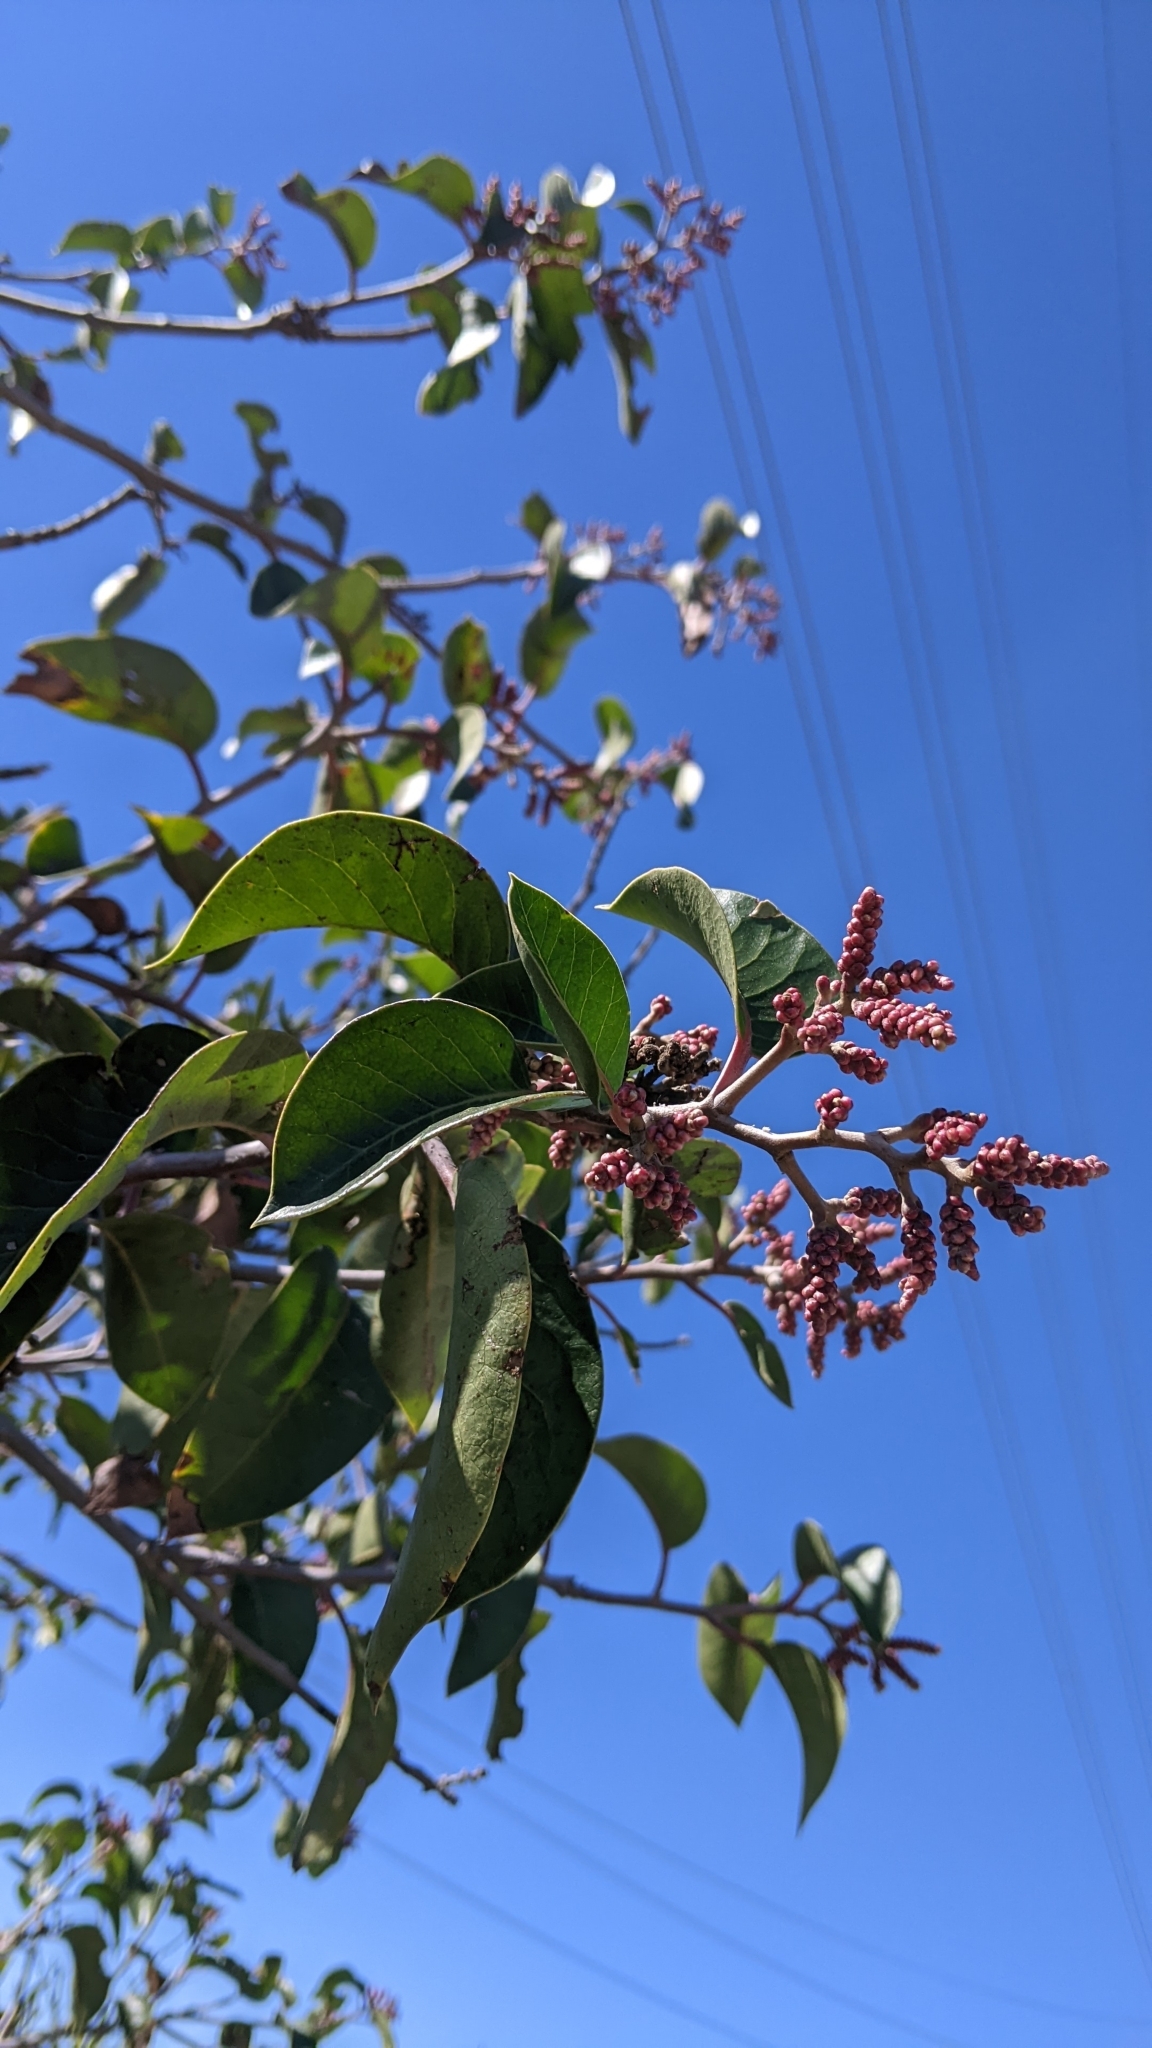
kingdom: Plantae
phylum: Tracheophyta
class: Magnoliopsida
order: Sapindales
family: Anacardiaceae
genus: Rhus
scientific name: Rhus ovata
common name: Sugar sumac
